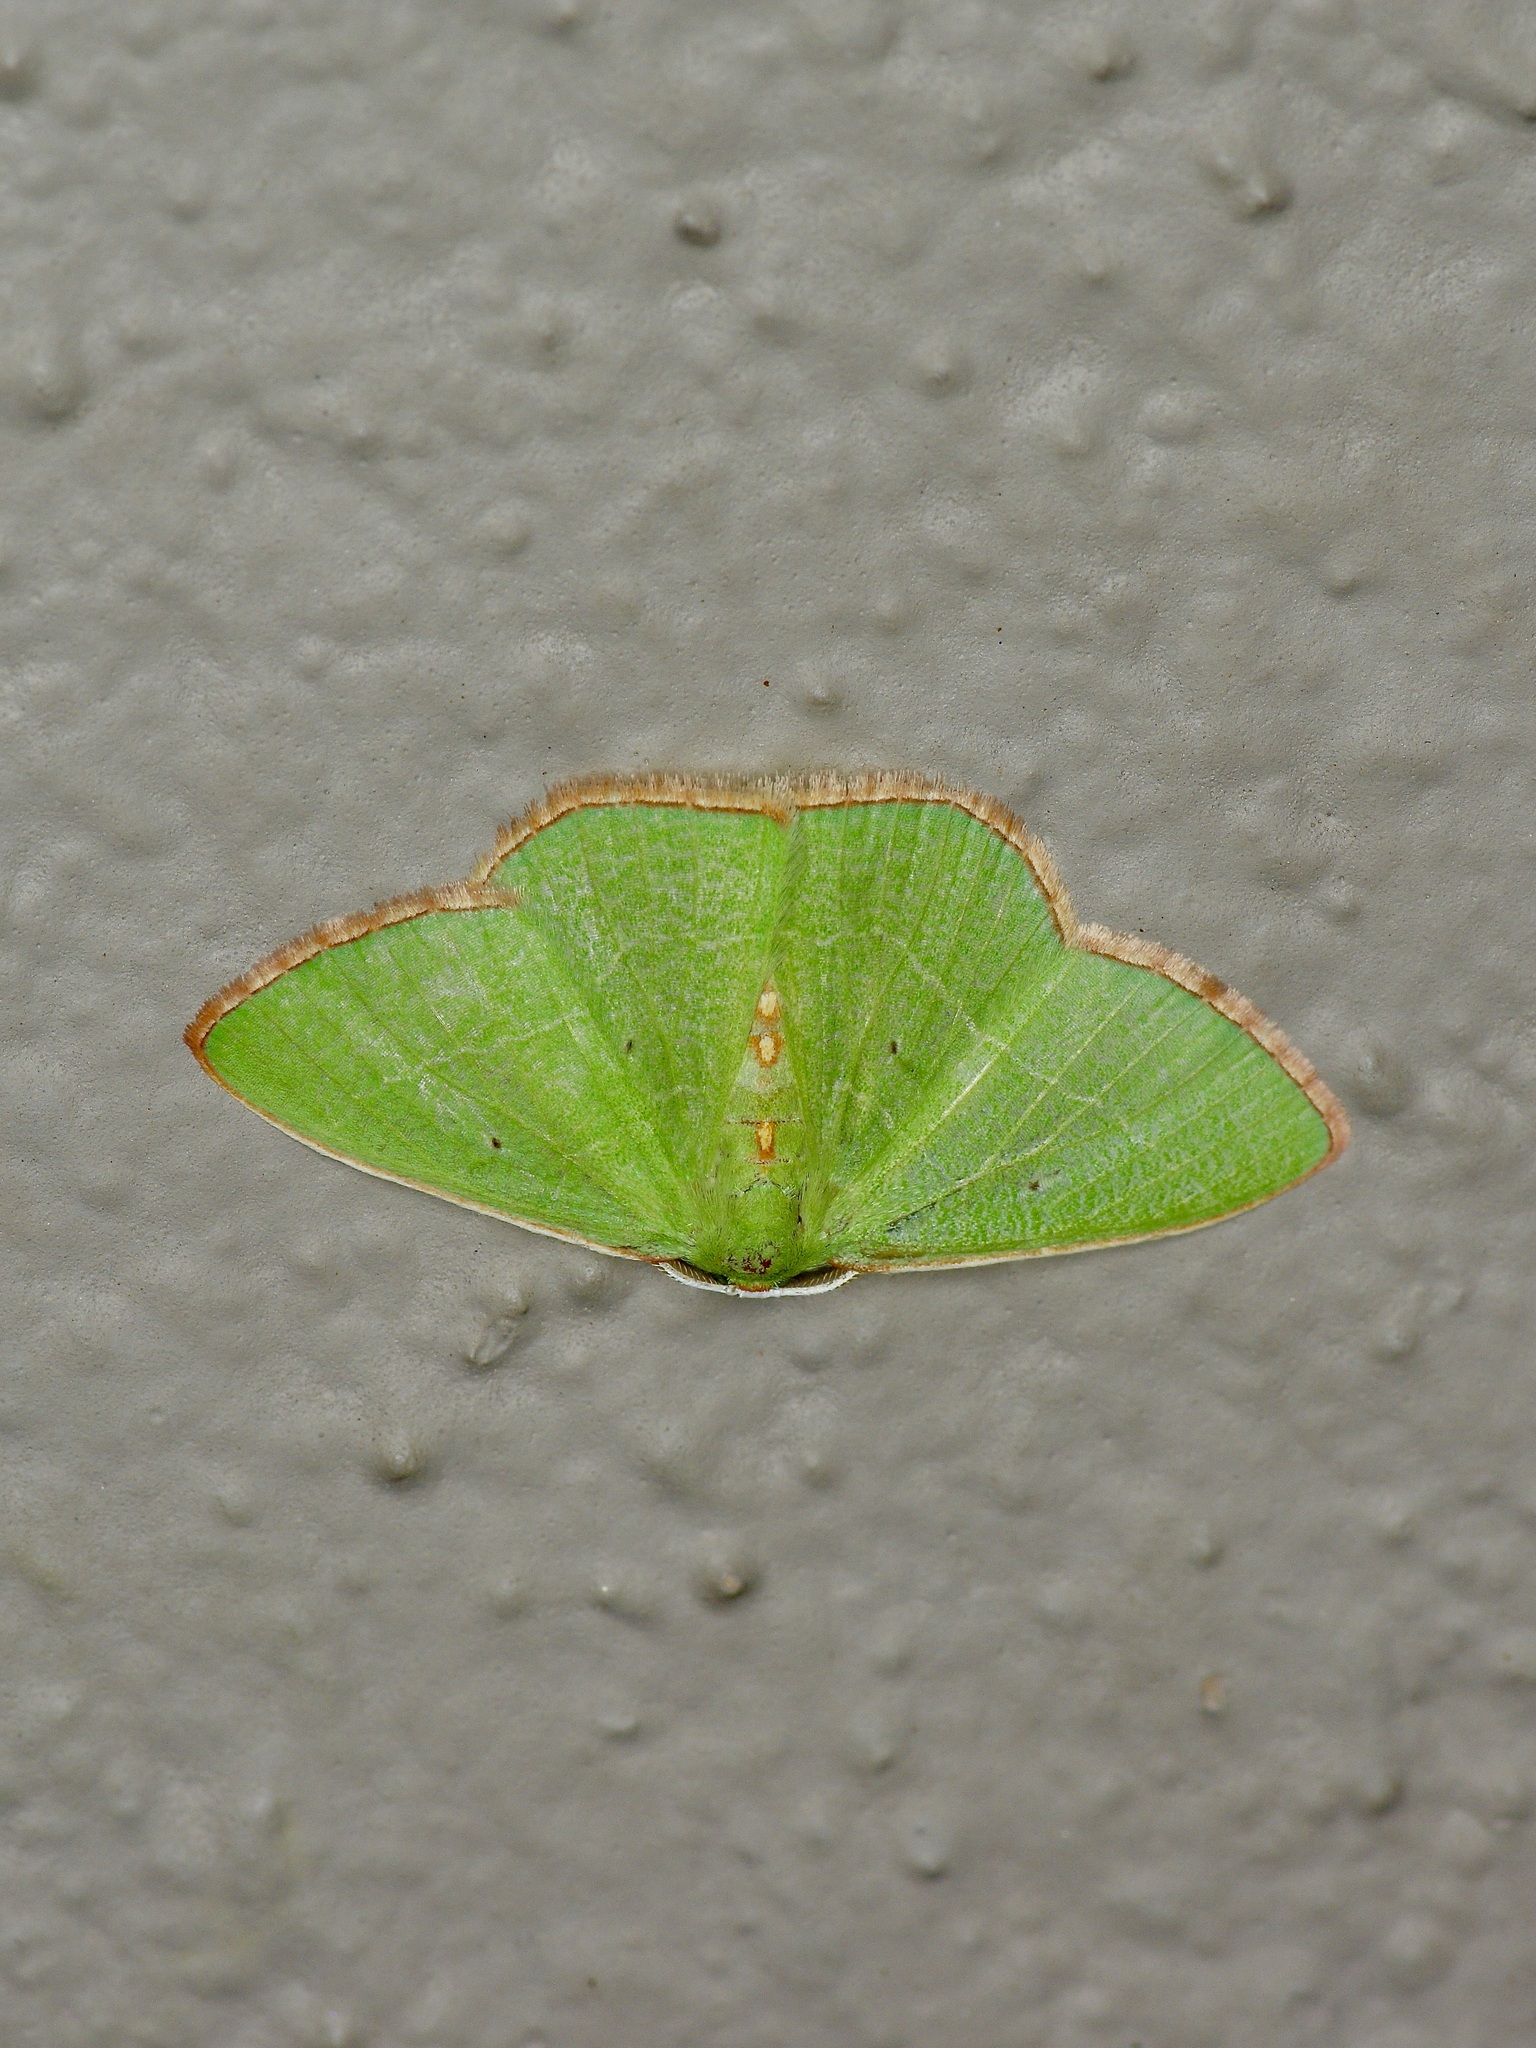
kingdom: Animalia
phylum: Arthropoda
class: Insecta
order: Lepidoptera
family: Geometridae
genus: Nemoria
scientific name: Nemoria bifilata
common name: White-barred emerald moth
